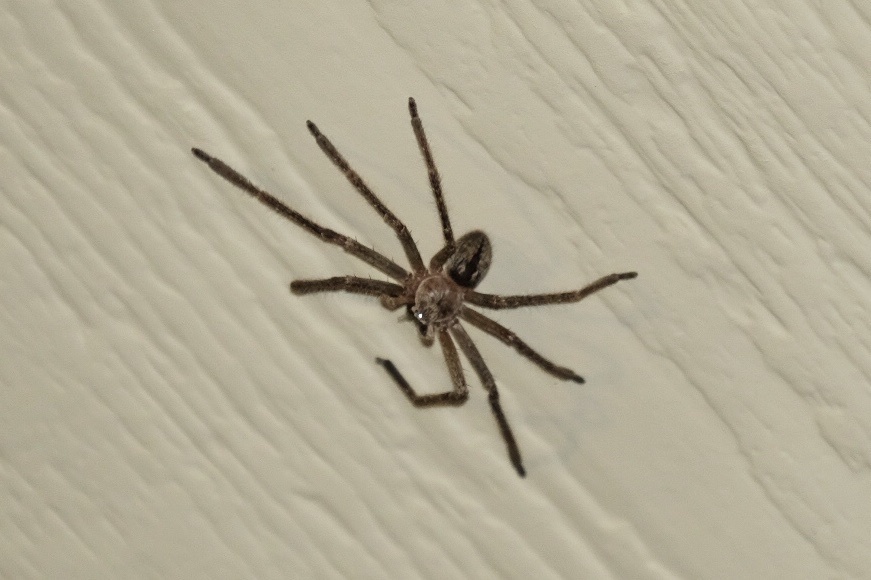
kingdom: Animalia
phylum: Arthropoda
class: Arachnida
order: Araneae
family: Sparassidae
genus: Olios
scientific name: Olios giganteus
